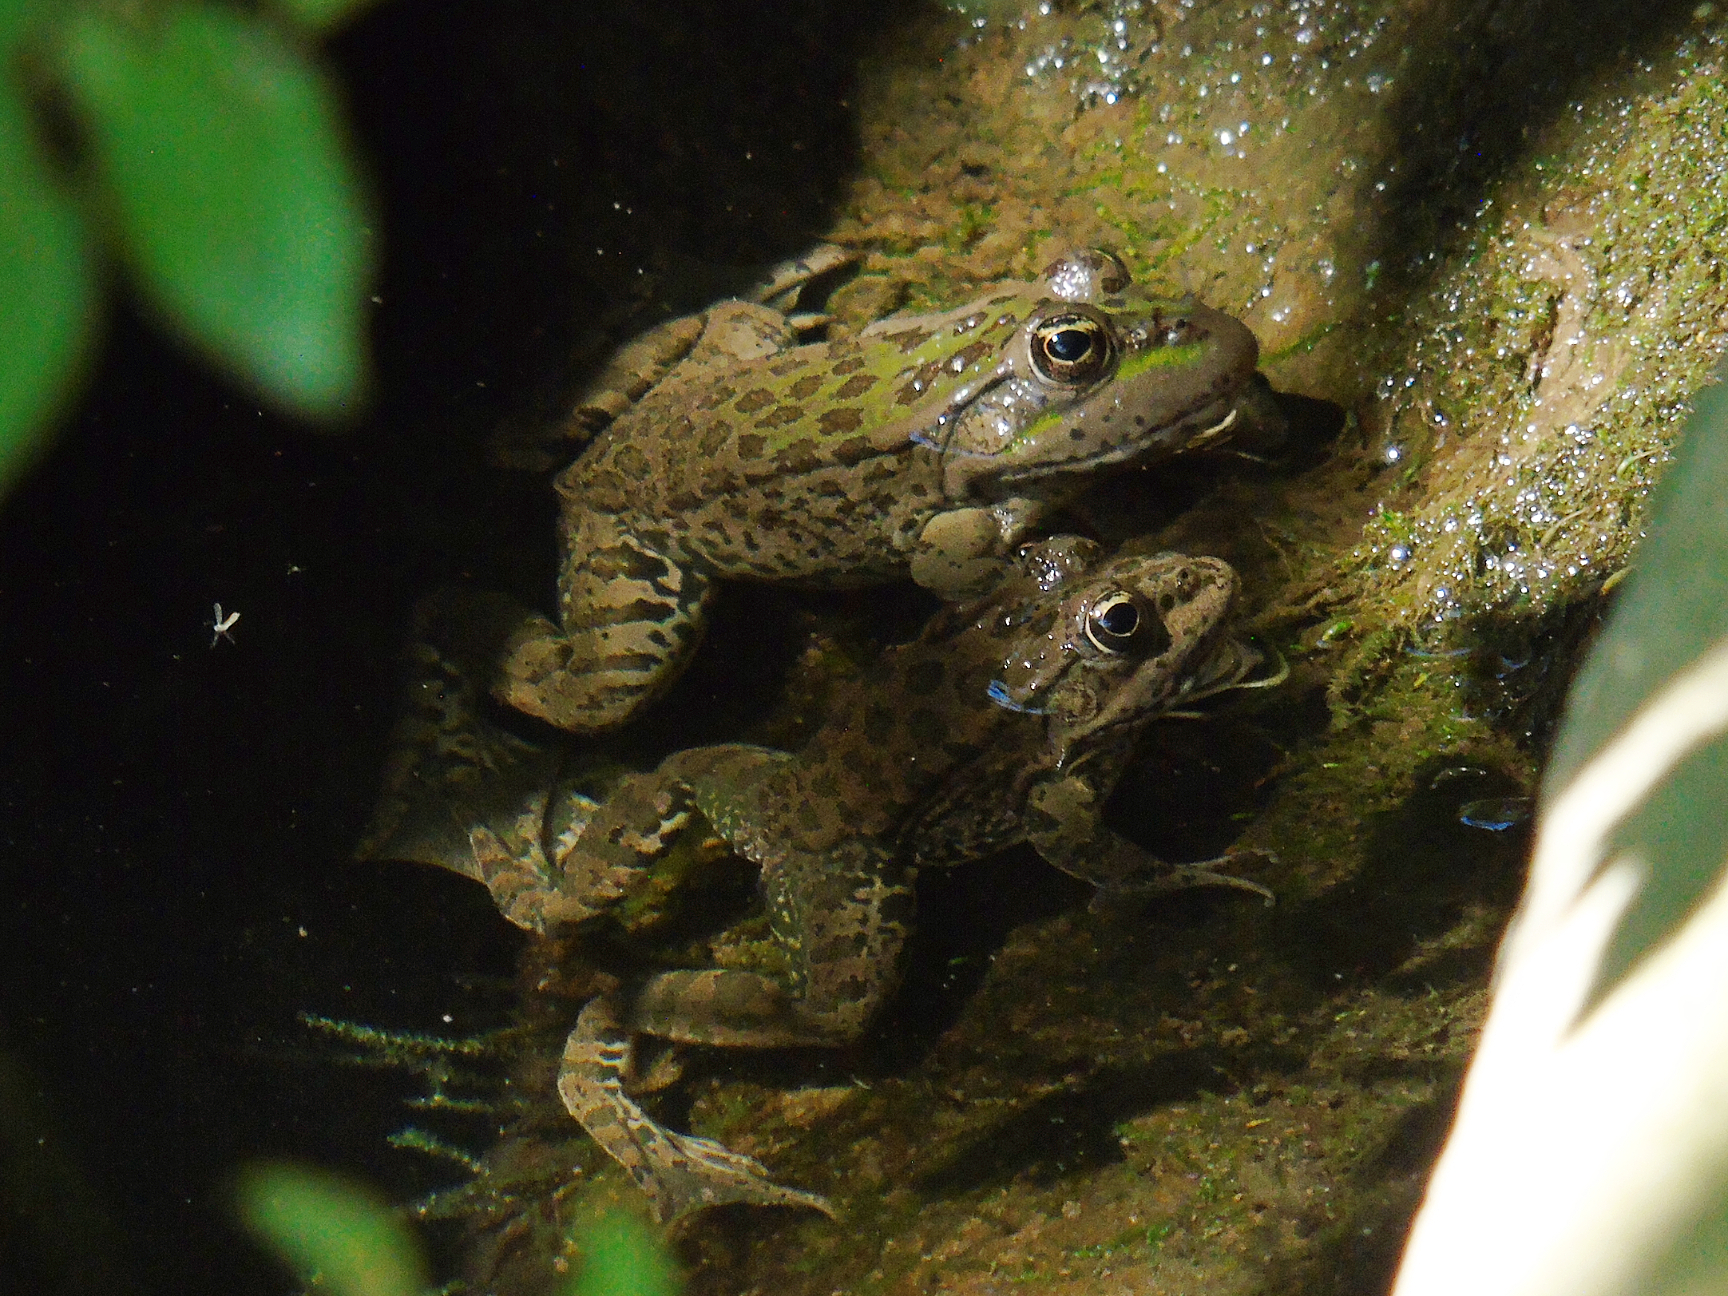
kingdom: Animalia
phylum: Chordata
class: Amphibia
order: Anura
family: Ranidae
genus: Pelophylax
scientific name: Pelophylax ridibundus
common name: Marsh frog
